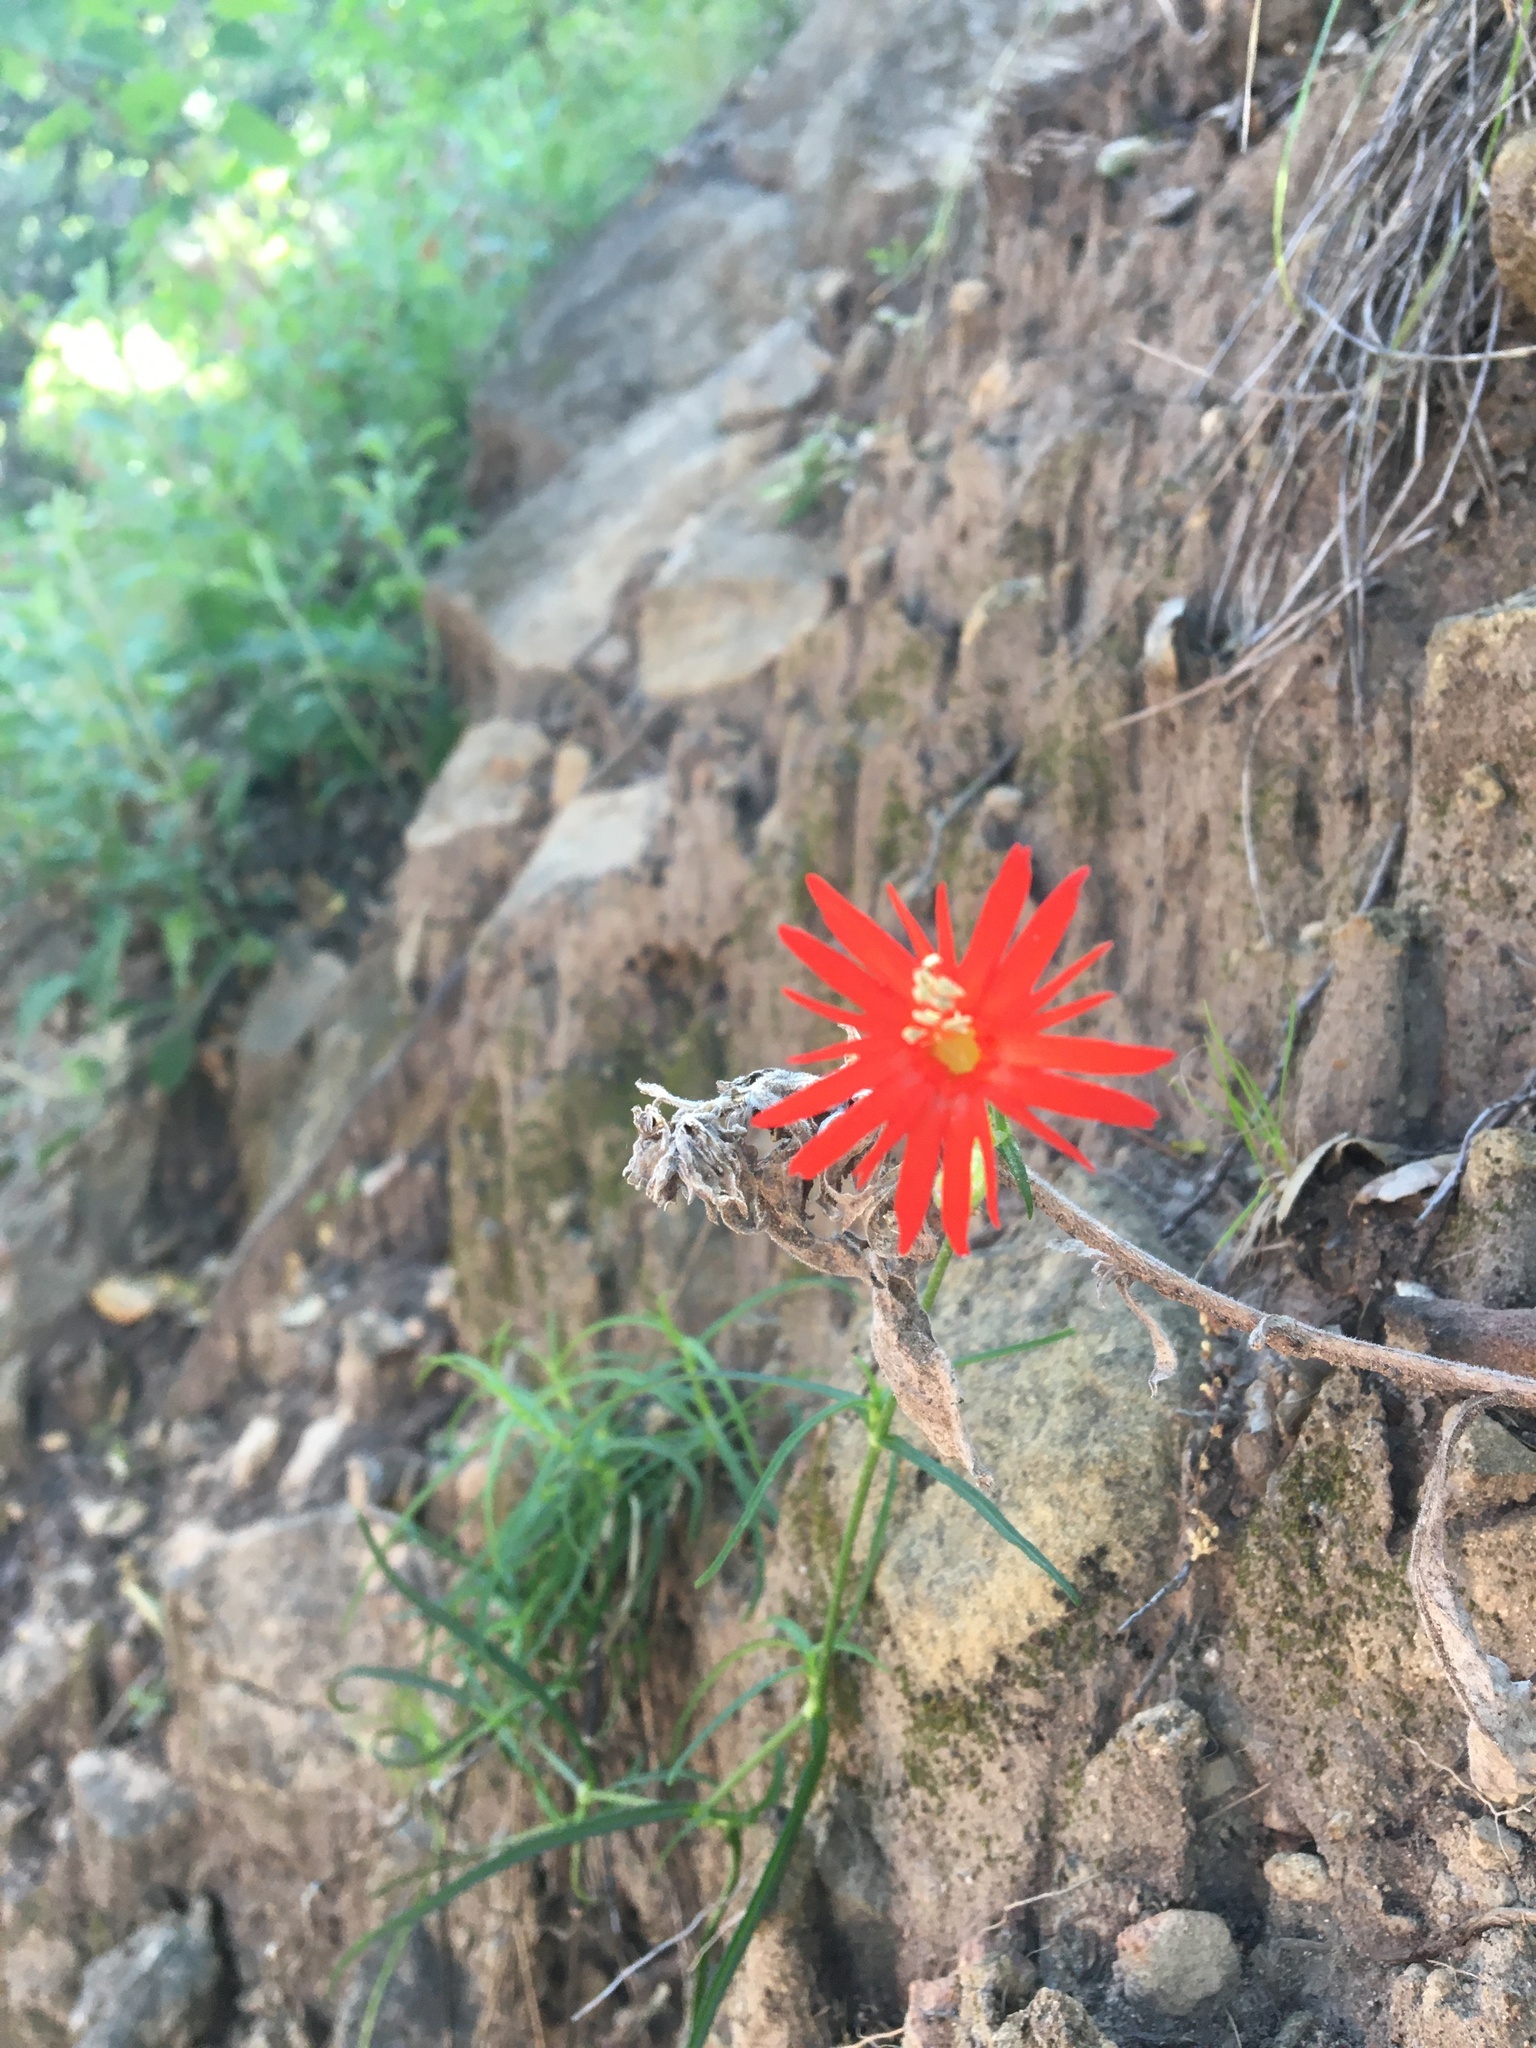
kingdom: Plantae
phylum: Tracheophyta
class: Magnoliopsida
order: Caryophyllales
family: Caryophyllaceae
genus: Silene
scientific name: Silene laciniata
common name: Indian-pink
